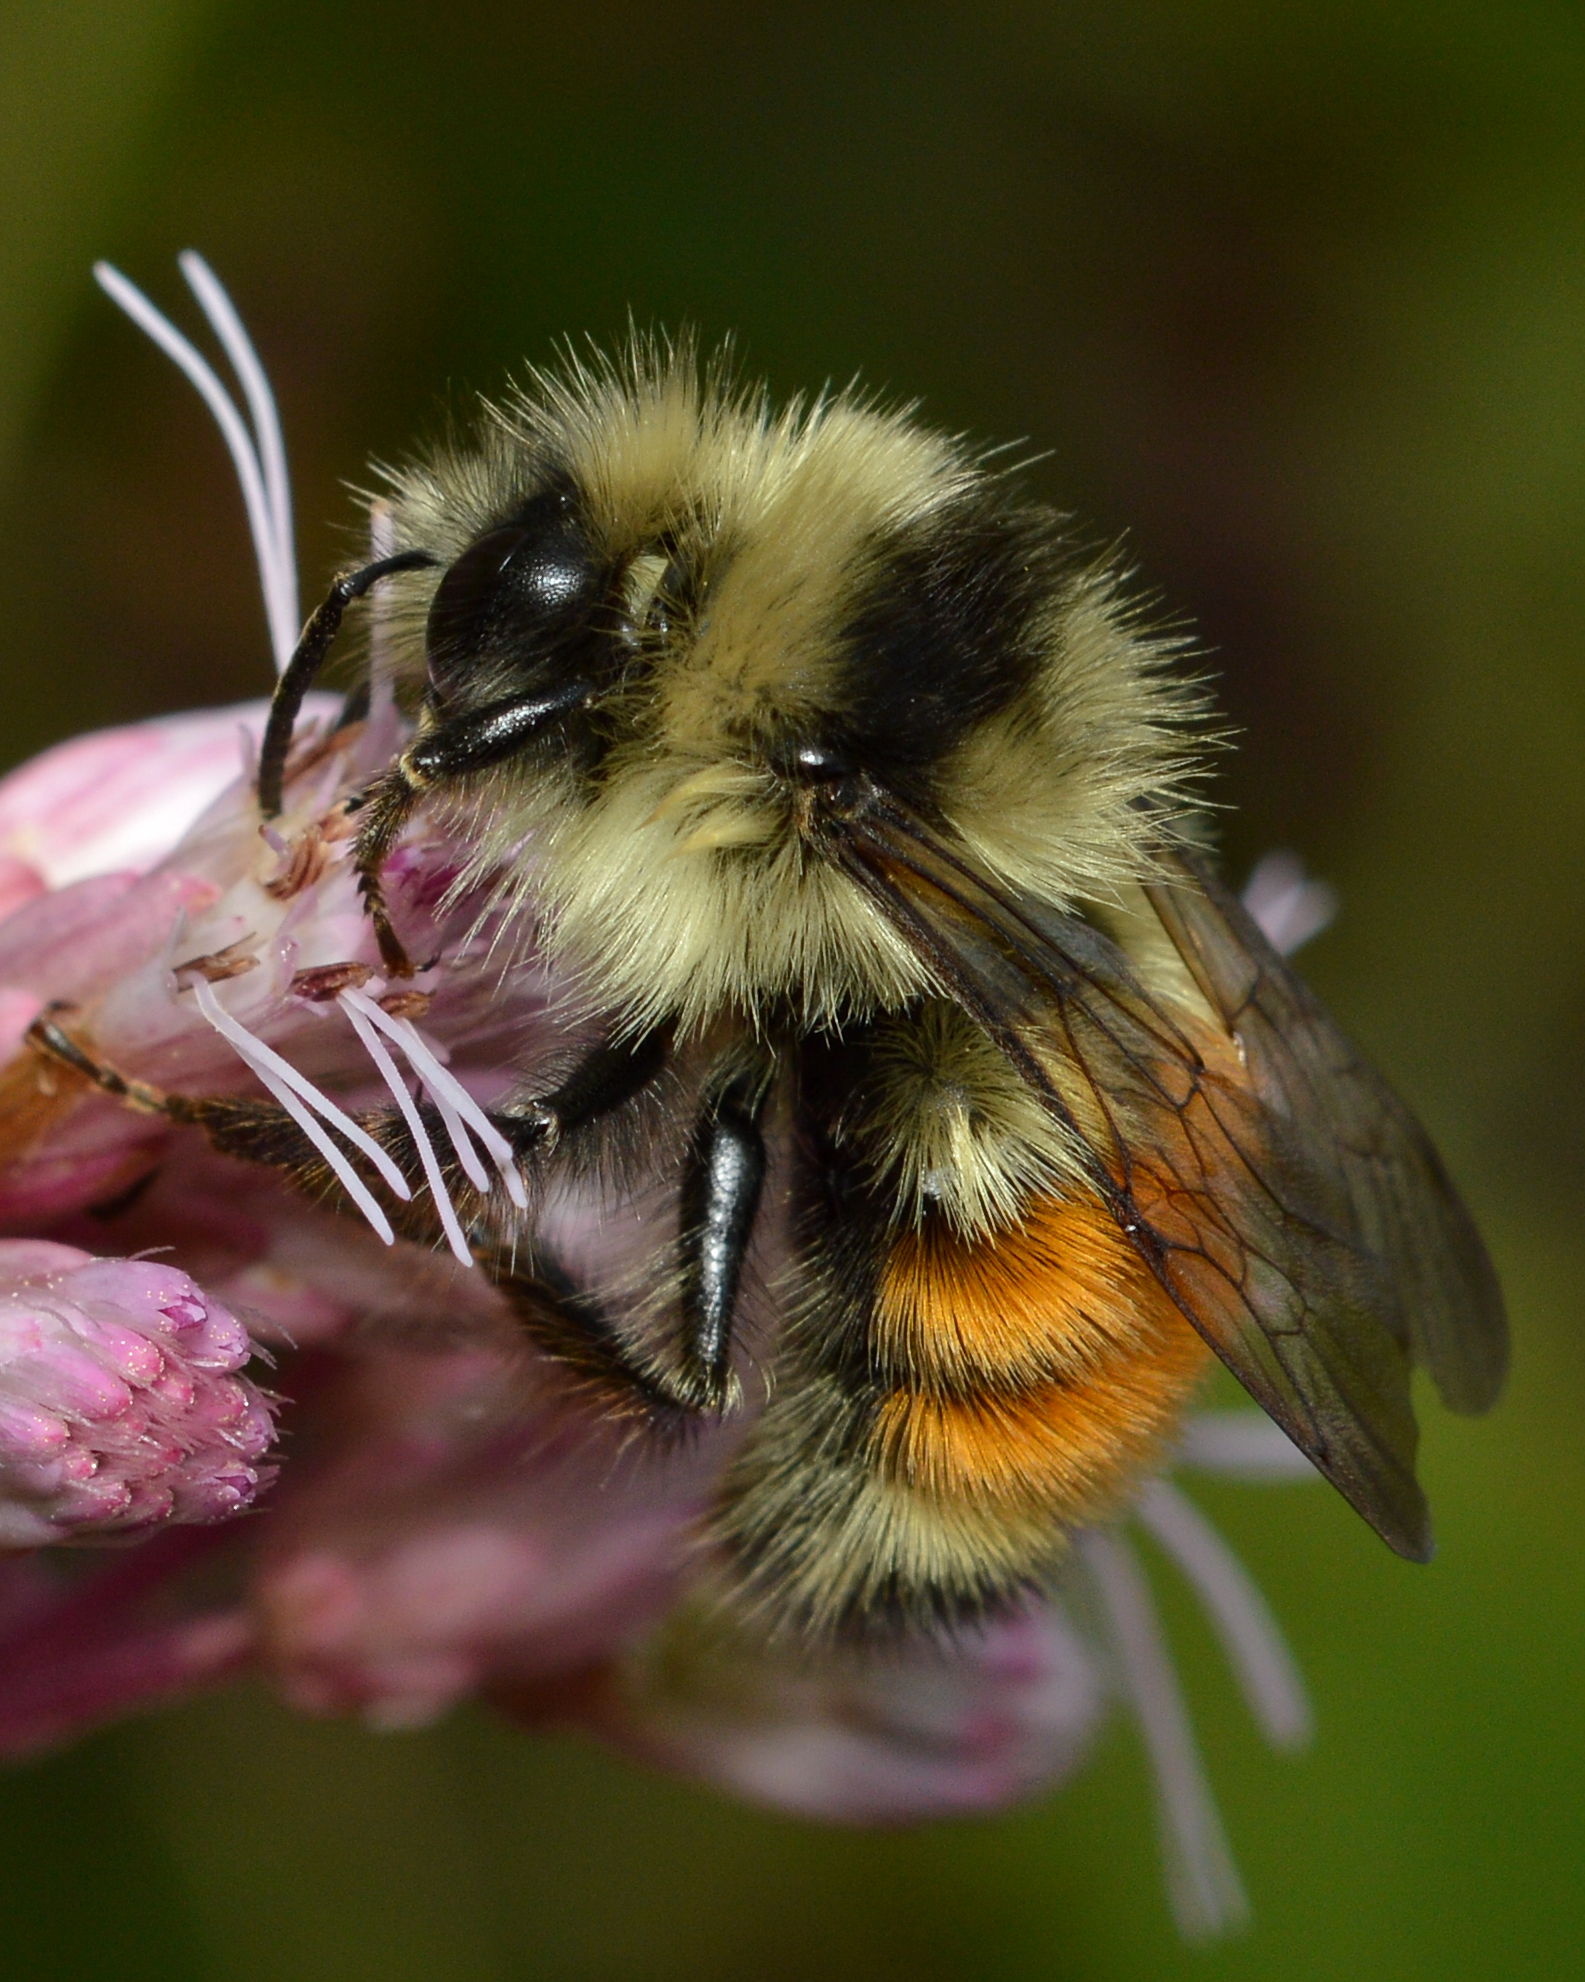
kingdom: Animalia
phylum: Arthropoda
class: Insecta
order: Hymenoptera
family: Apidae
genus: Bombus
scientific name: Bombus ternarius
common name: Tri-colored bumble bee
